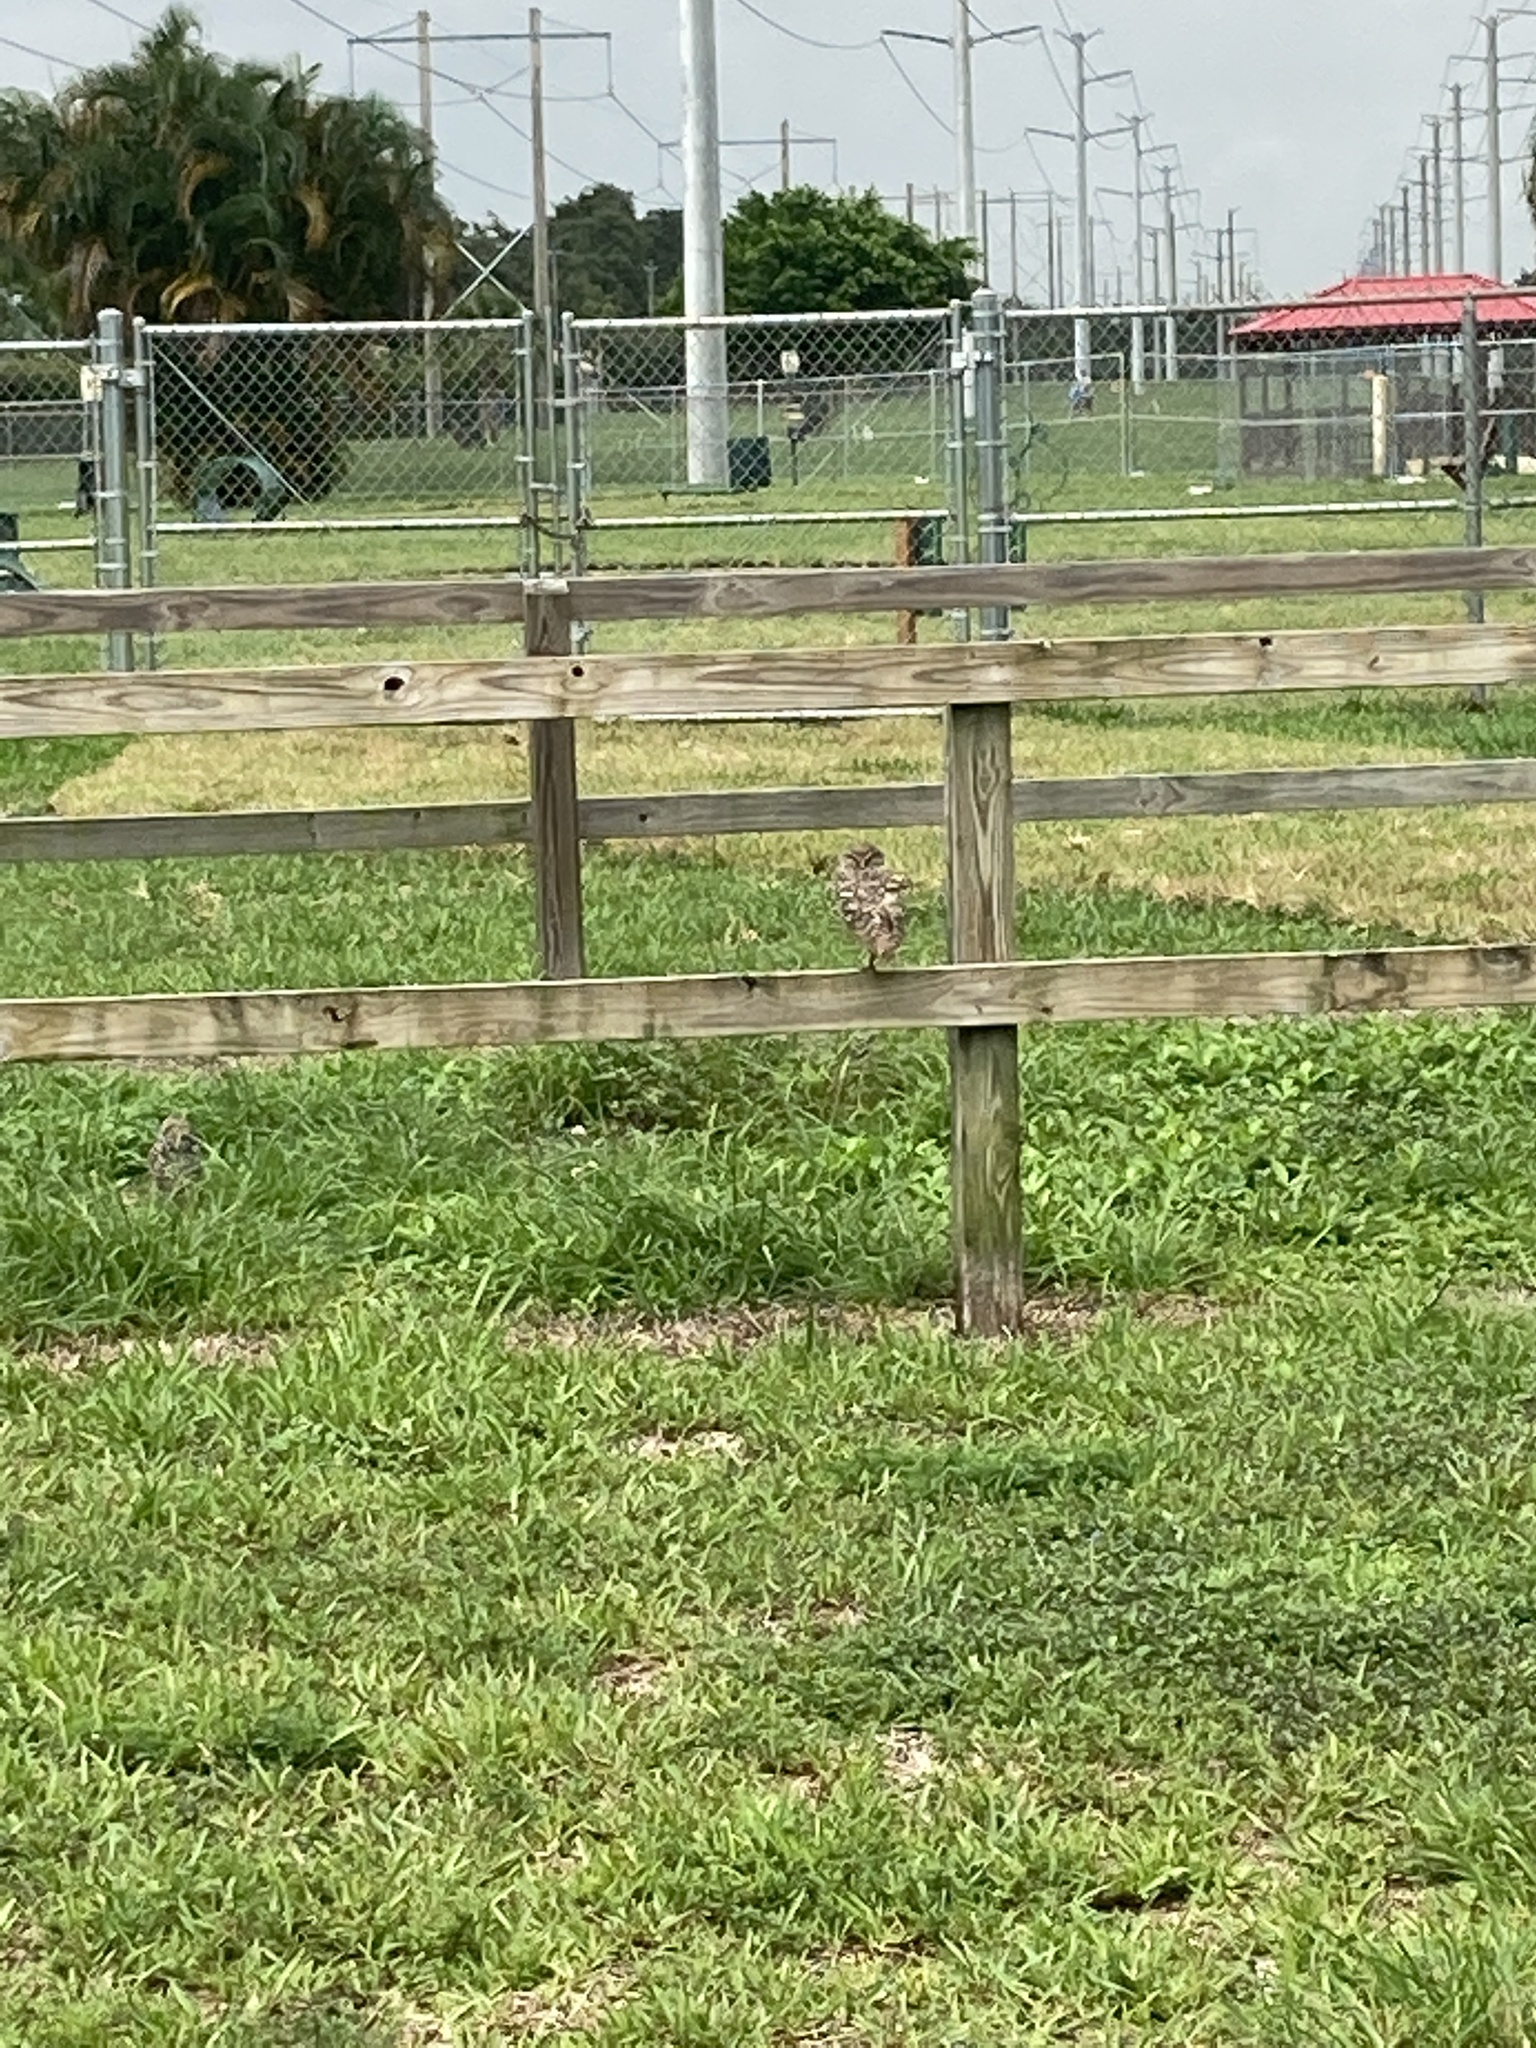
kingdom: Animalia
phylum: Chordata
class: Aves
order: Strigiformes
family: Strigidae
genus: Athene
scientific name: Athene cunicularia
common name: Burrowing owl
